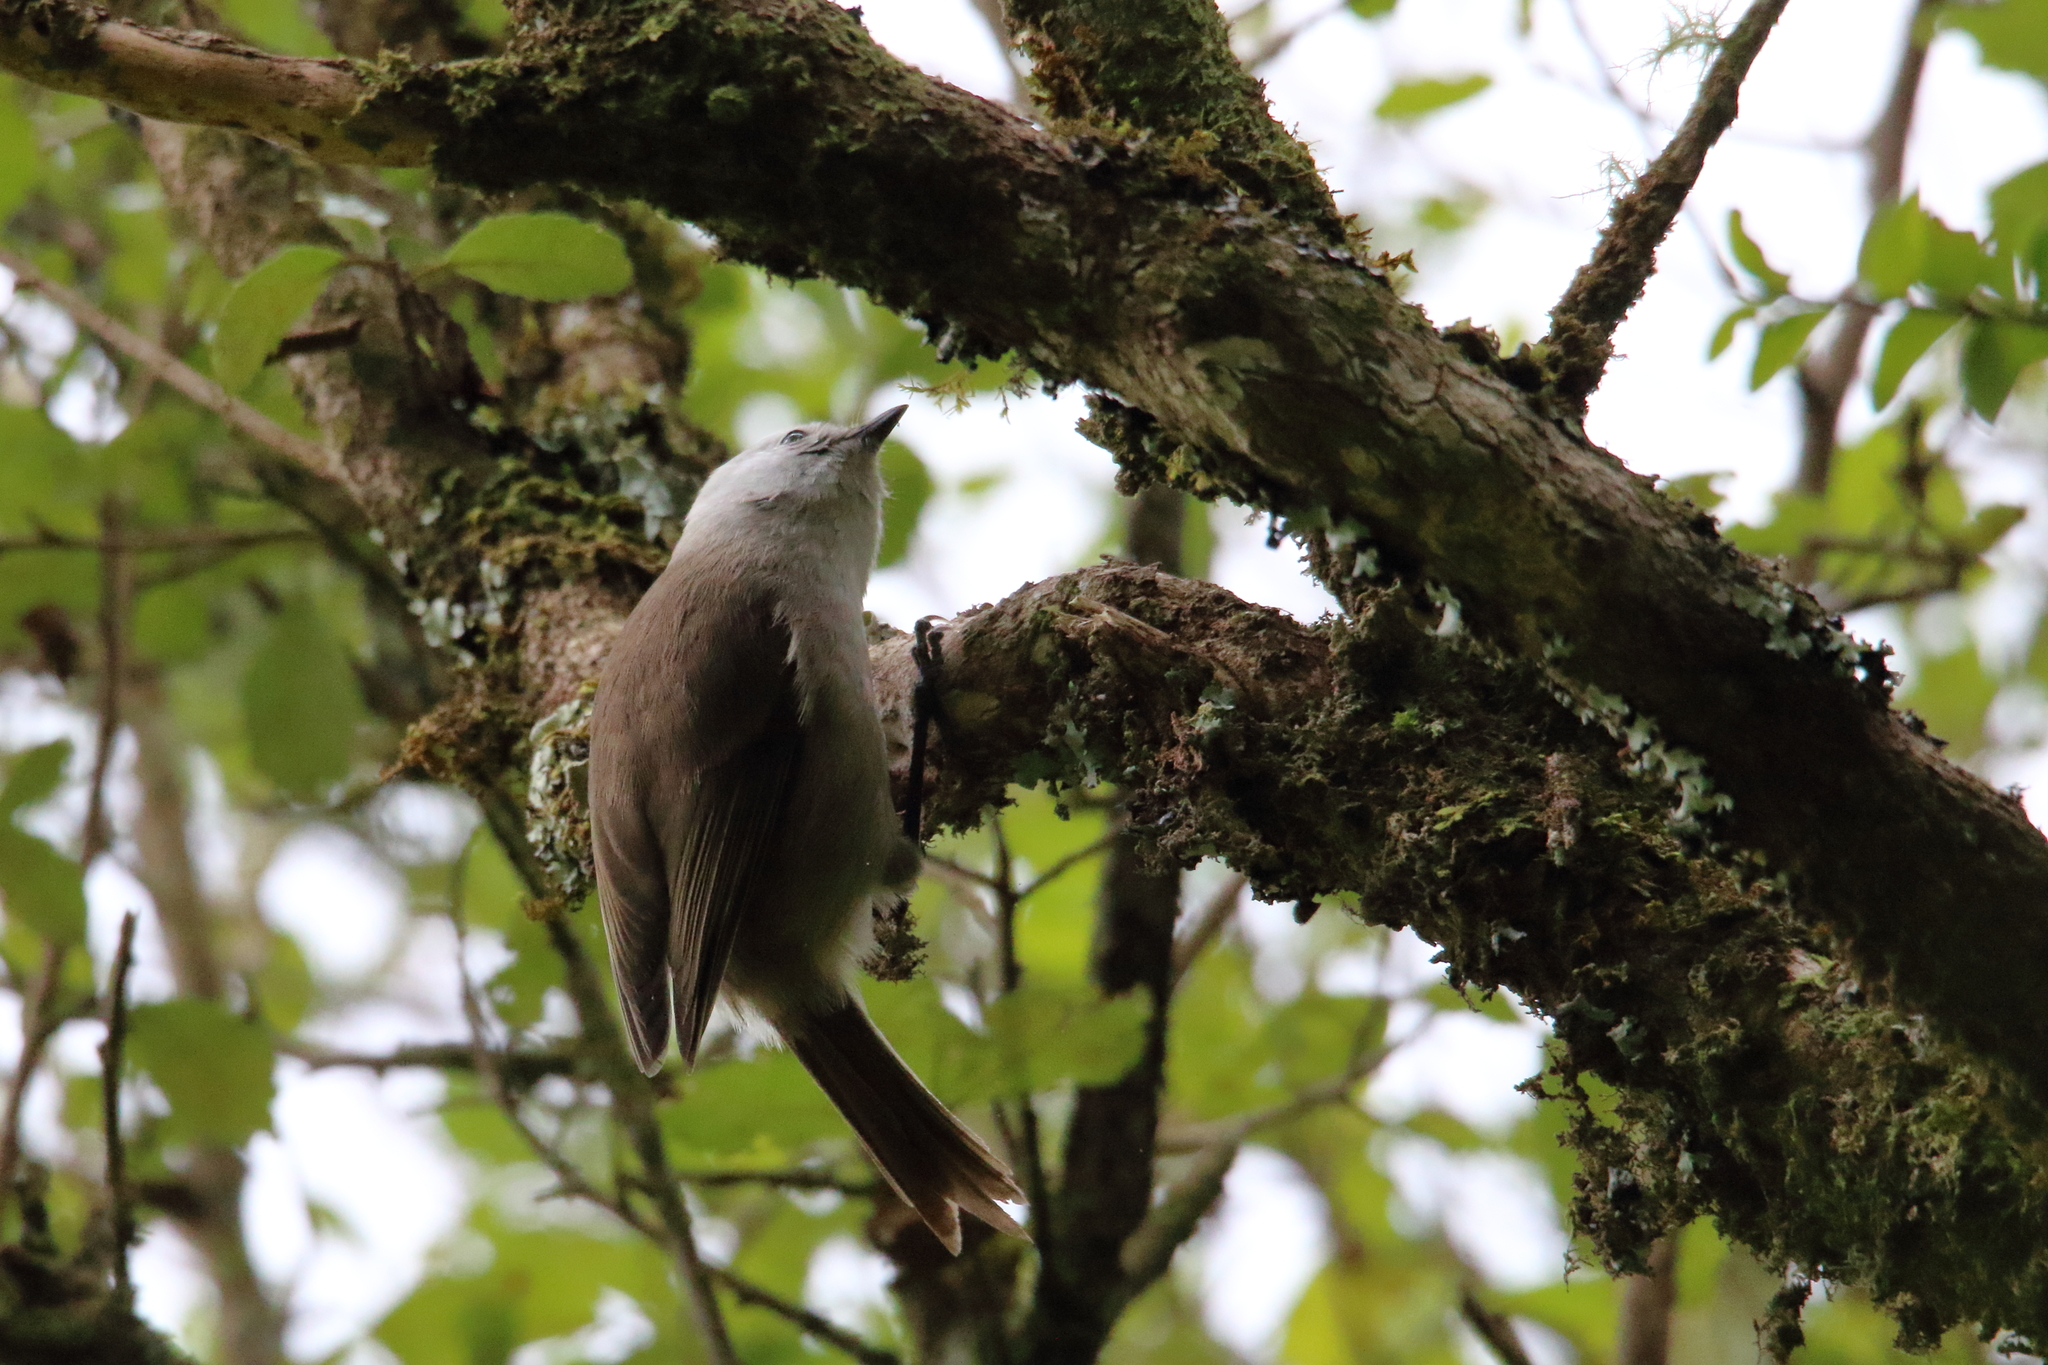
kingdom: Animalia
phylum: Chordata
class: Aves
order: Passeriformes
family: Acanthizidae
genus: Mohoua
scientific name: Mohoua albicilla
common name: Whitehead
